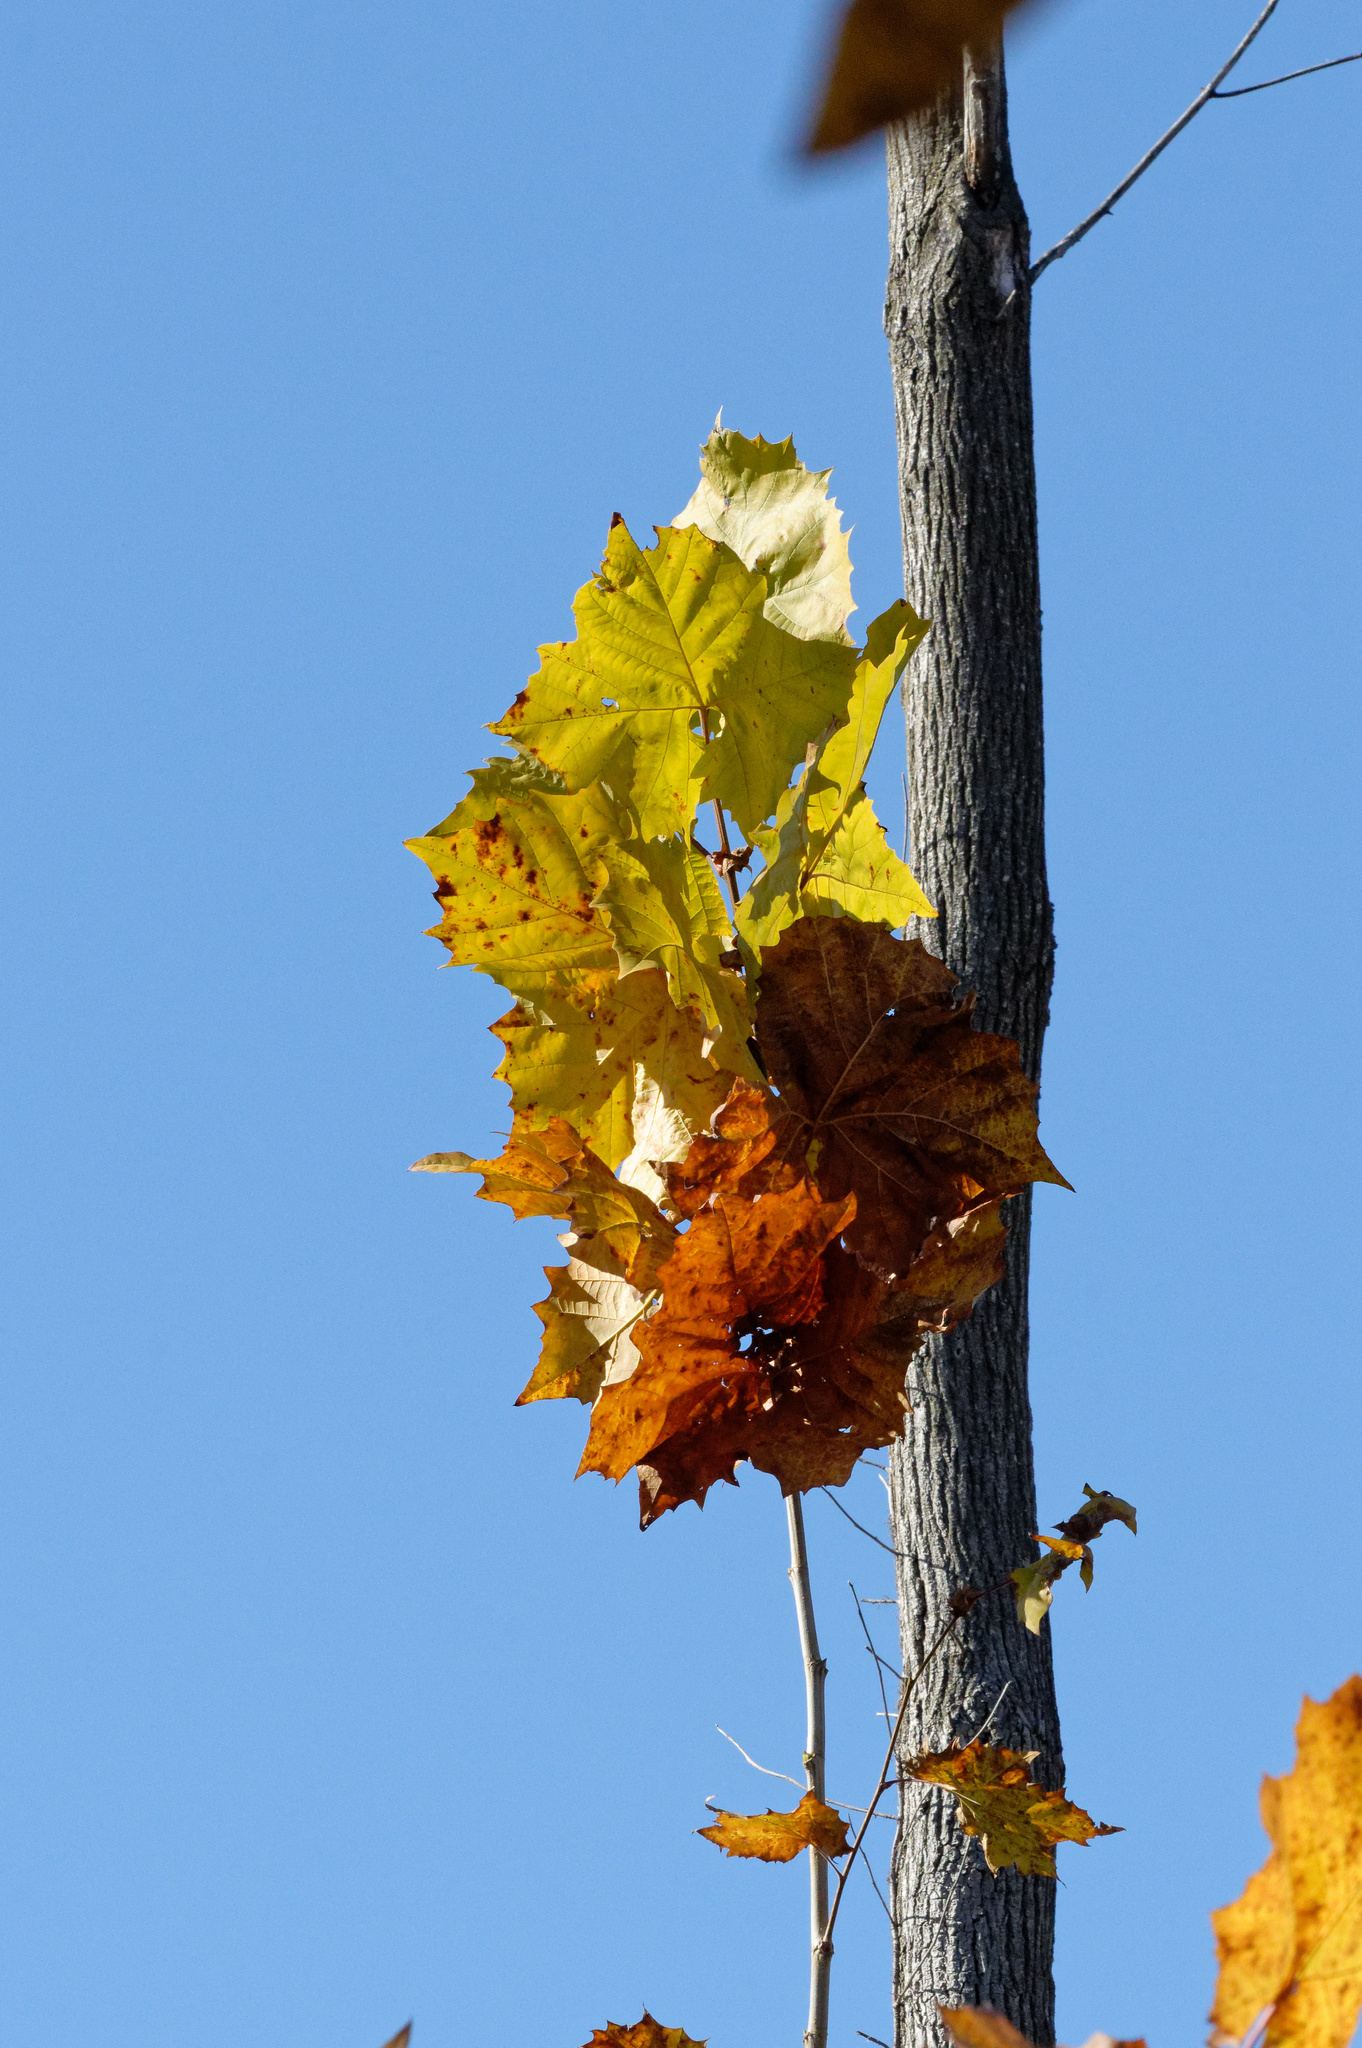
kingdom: Plantae
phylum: Tracheophyta
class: Magnoliopsida
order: Proteales
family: Platanaceae
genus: Platanus
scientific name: Platanus occidentalis
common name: American sycamore
